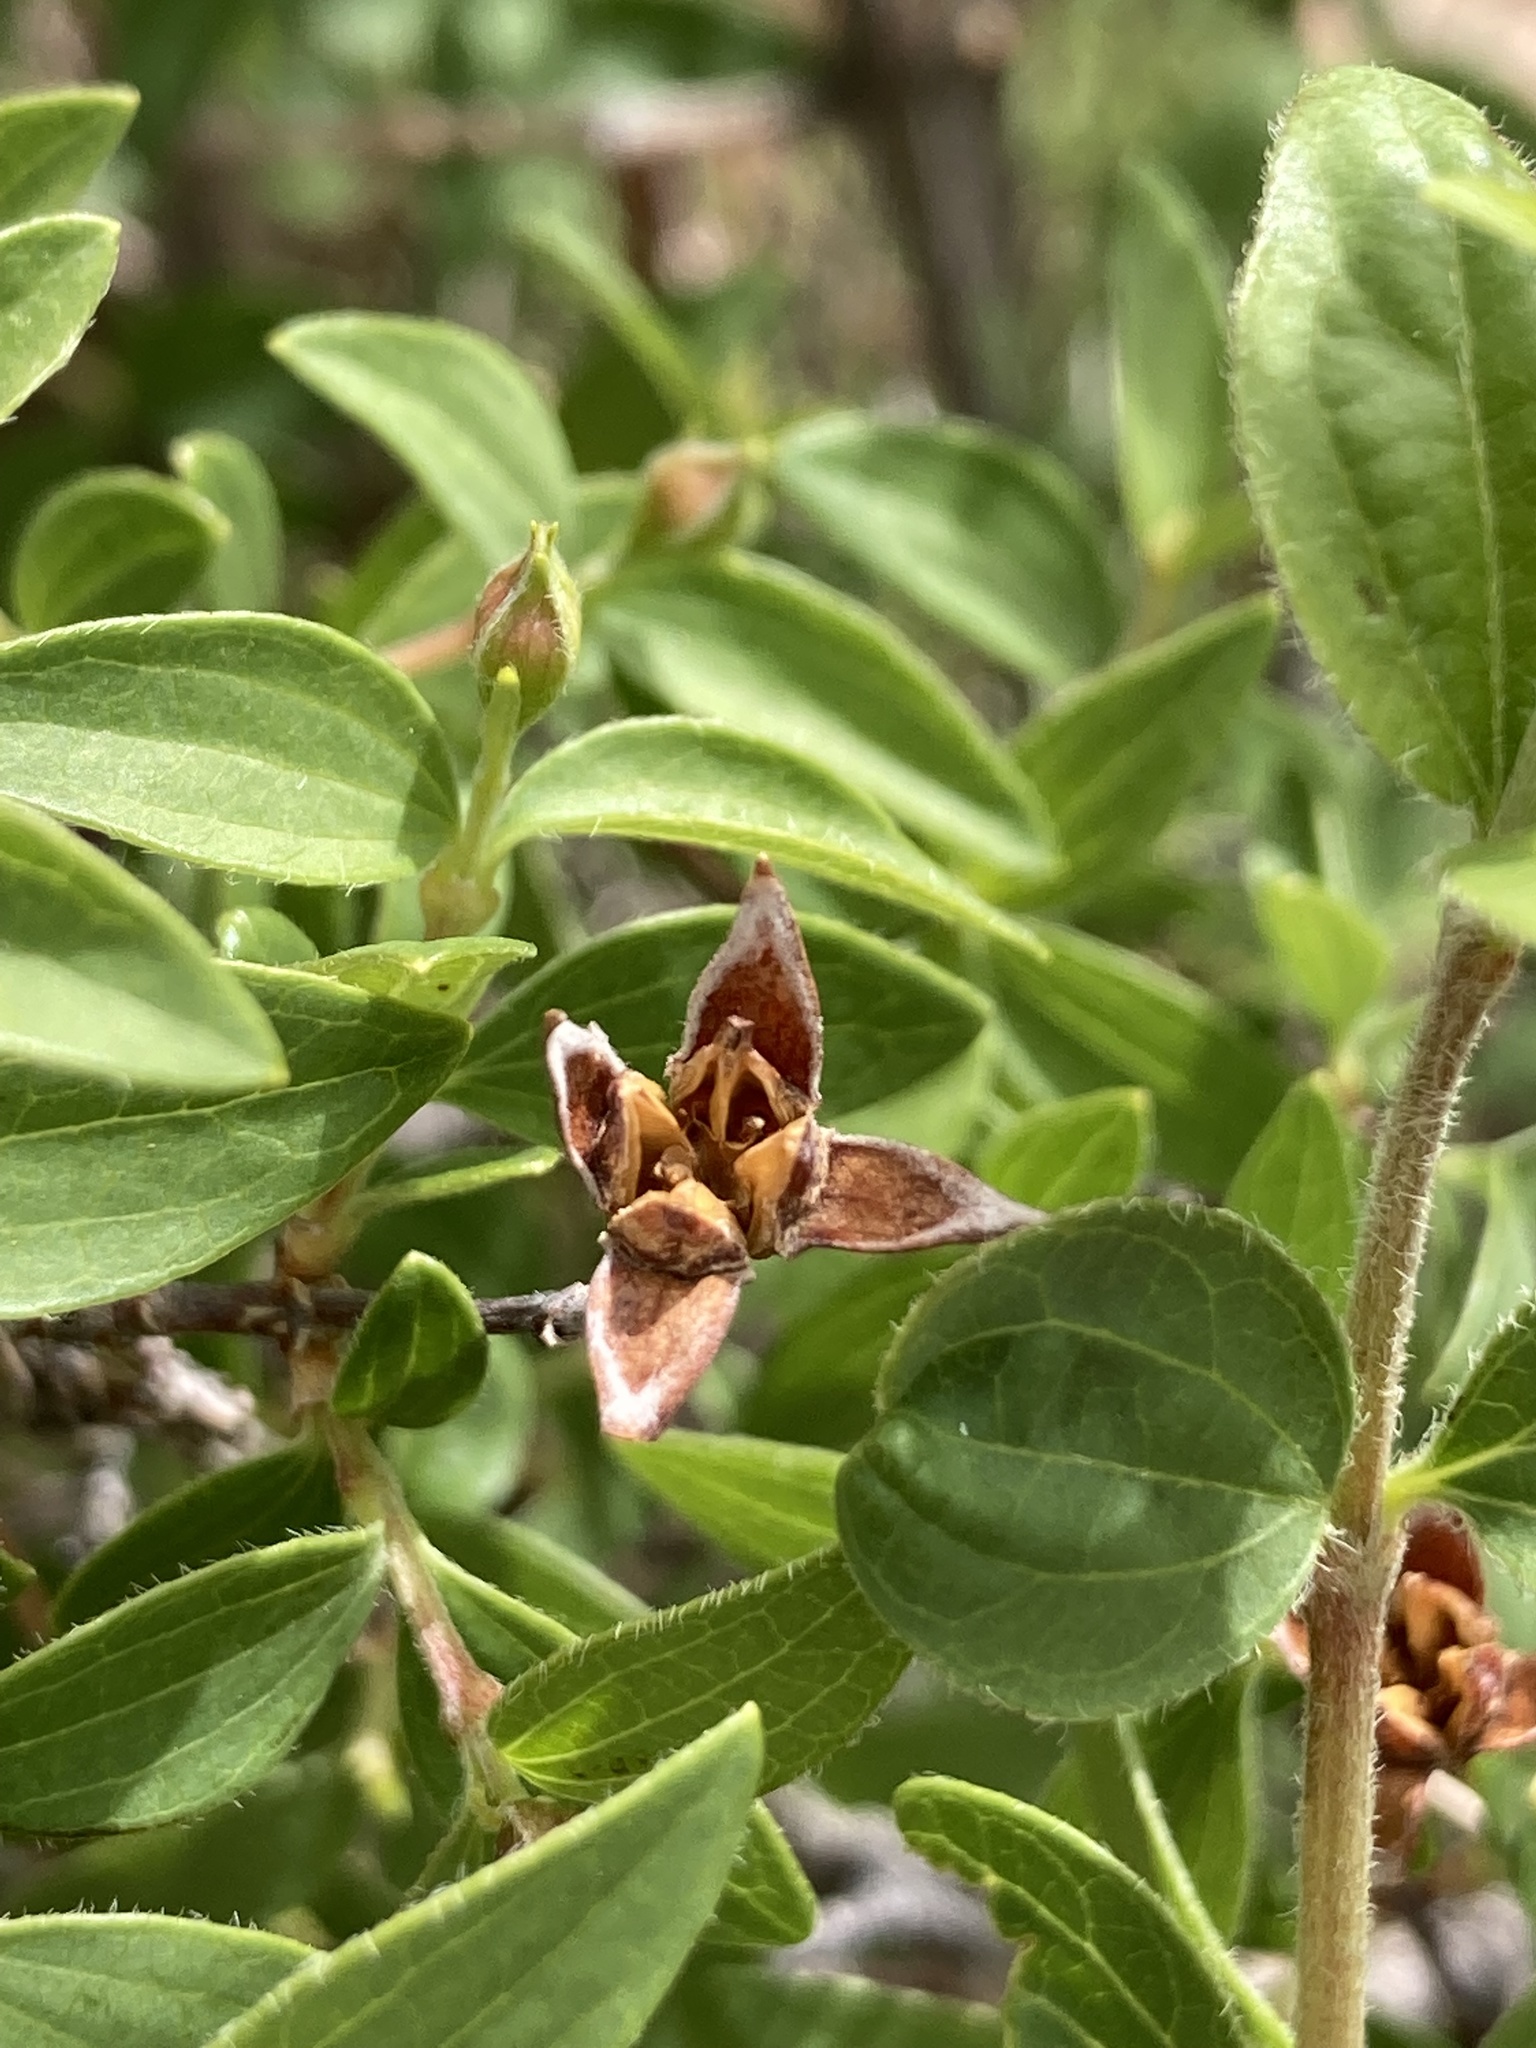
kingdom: Plantae
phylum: Tracheophyta
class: Magnoliopsida
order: Cornales
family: Hydrangeaceae
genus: Fendlera
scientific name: Fendlera rupicola
